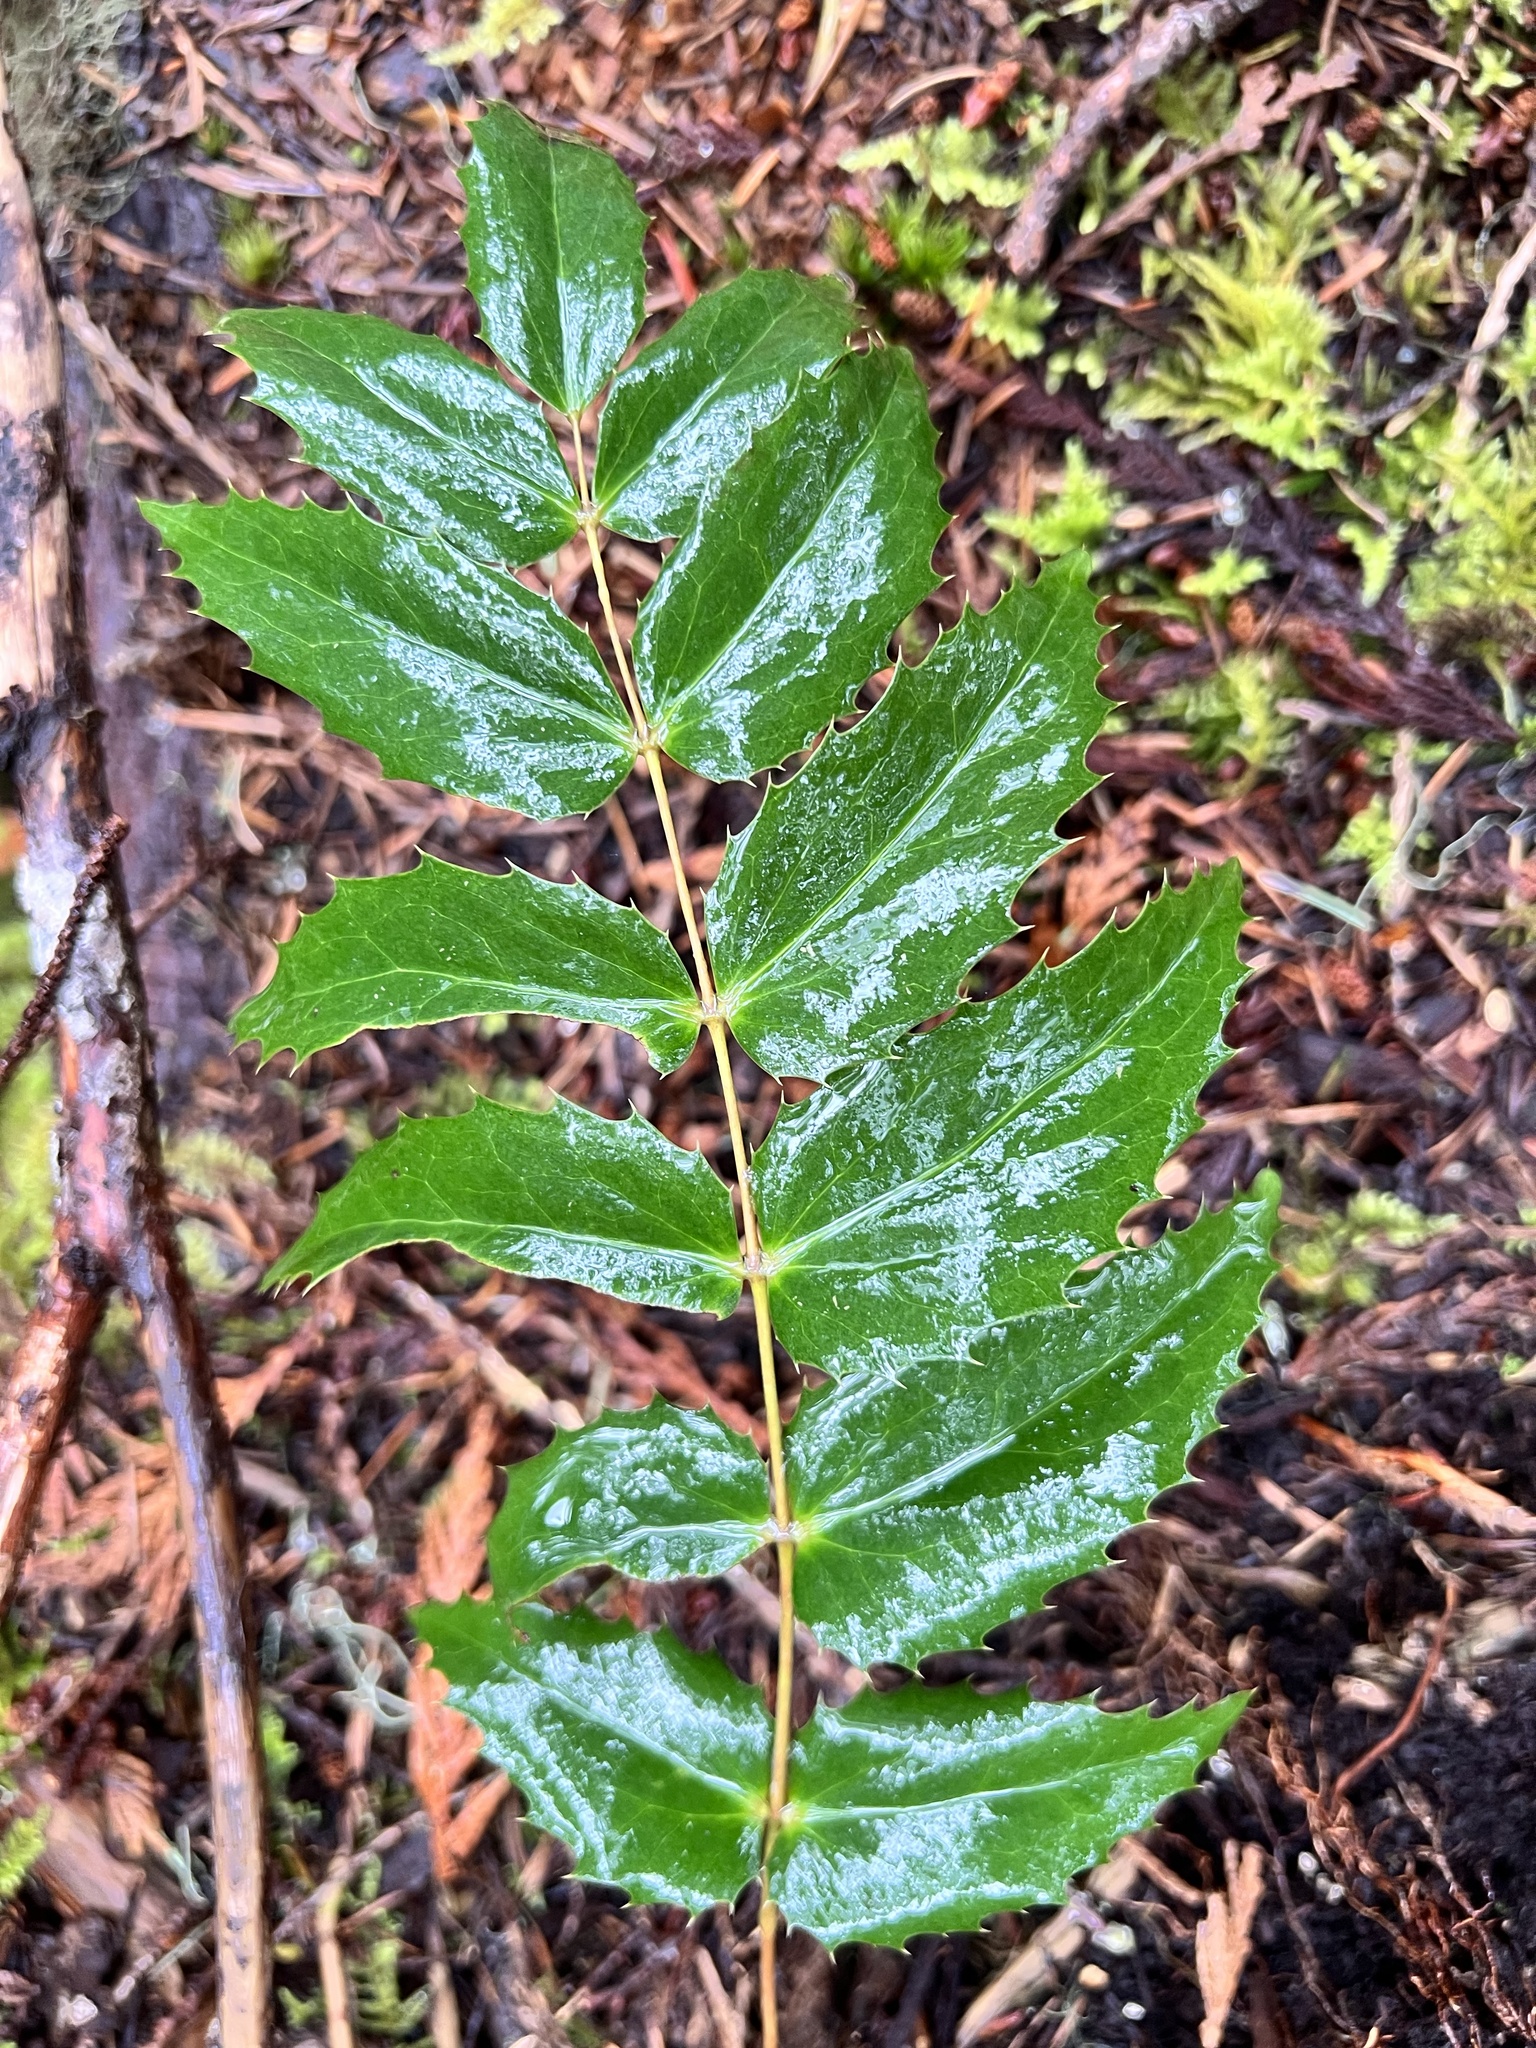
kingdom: Plantae
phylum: Tracheophyta
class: Magnoliopsida
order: Ranunculales
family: Berberidaceae
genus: Mahonia
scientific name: Mahonia nervosa
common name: Cascade oregon-grape
